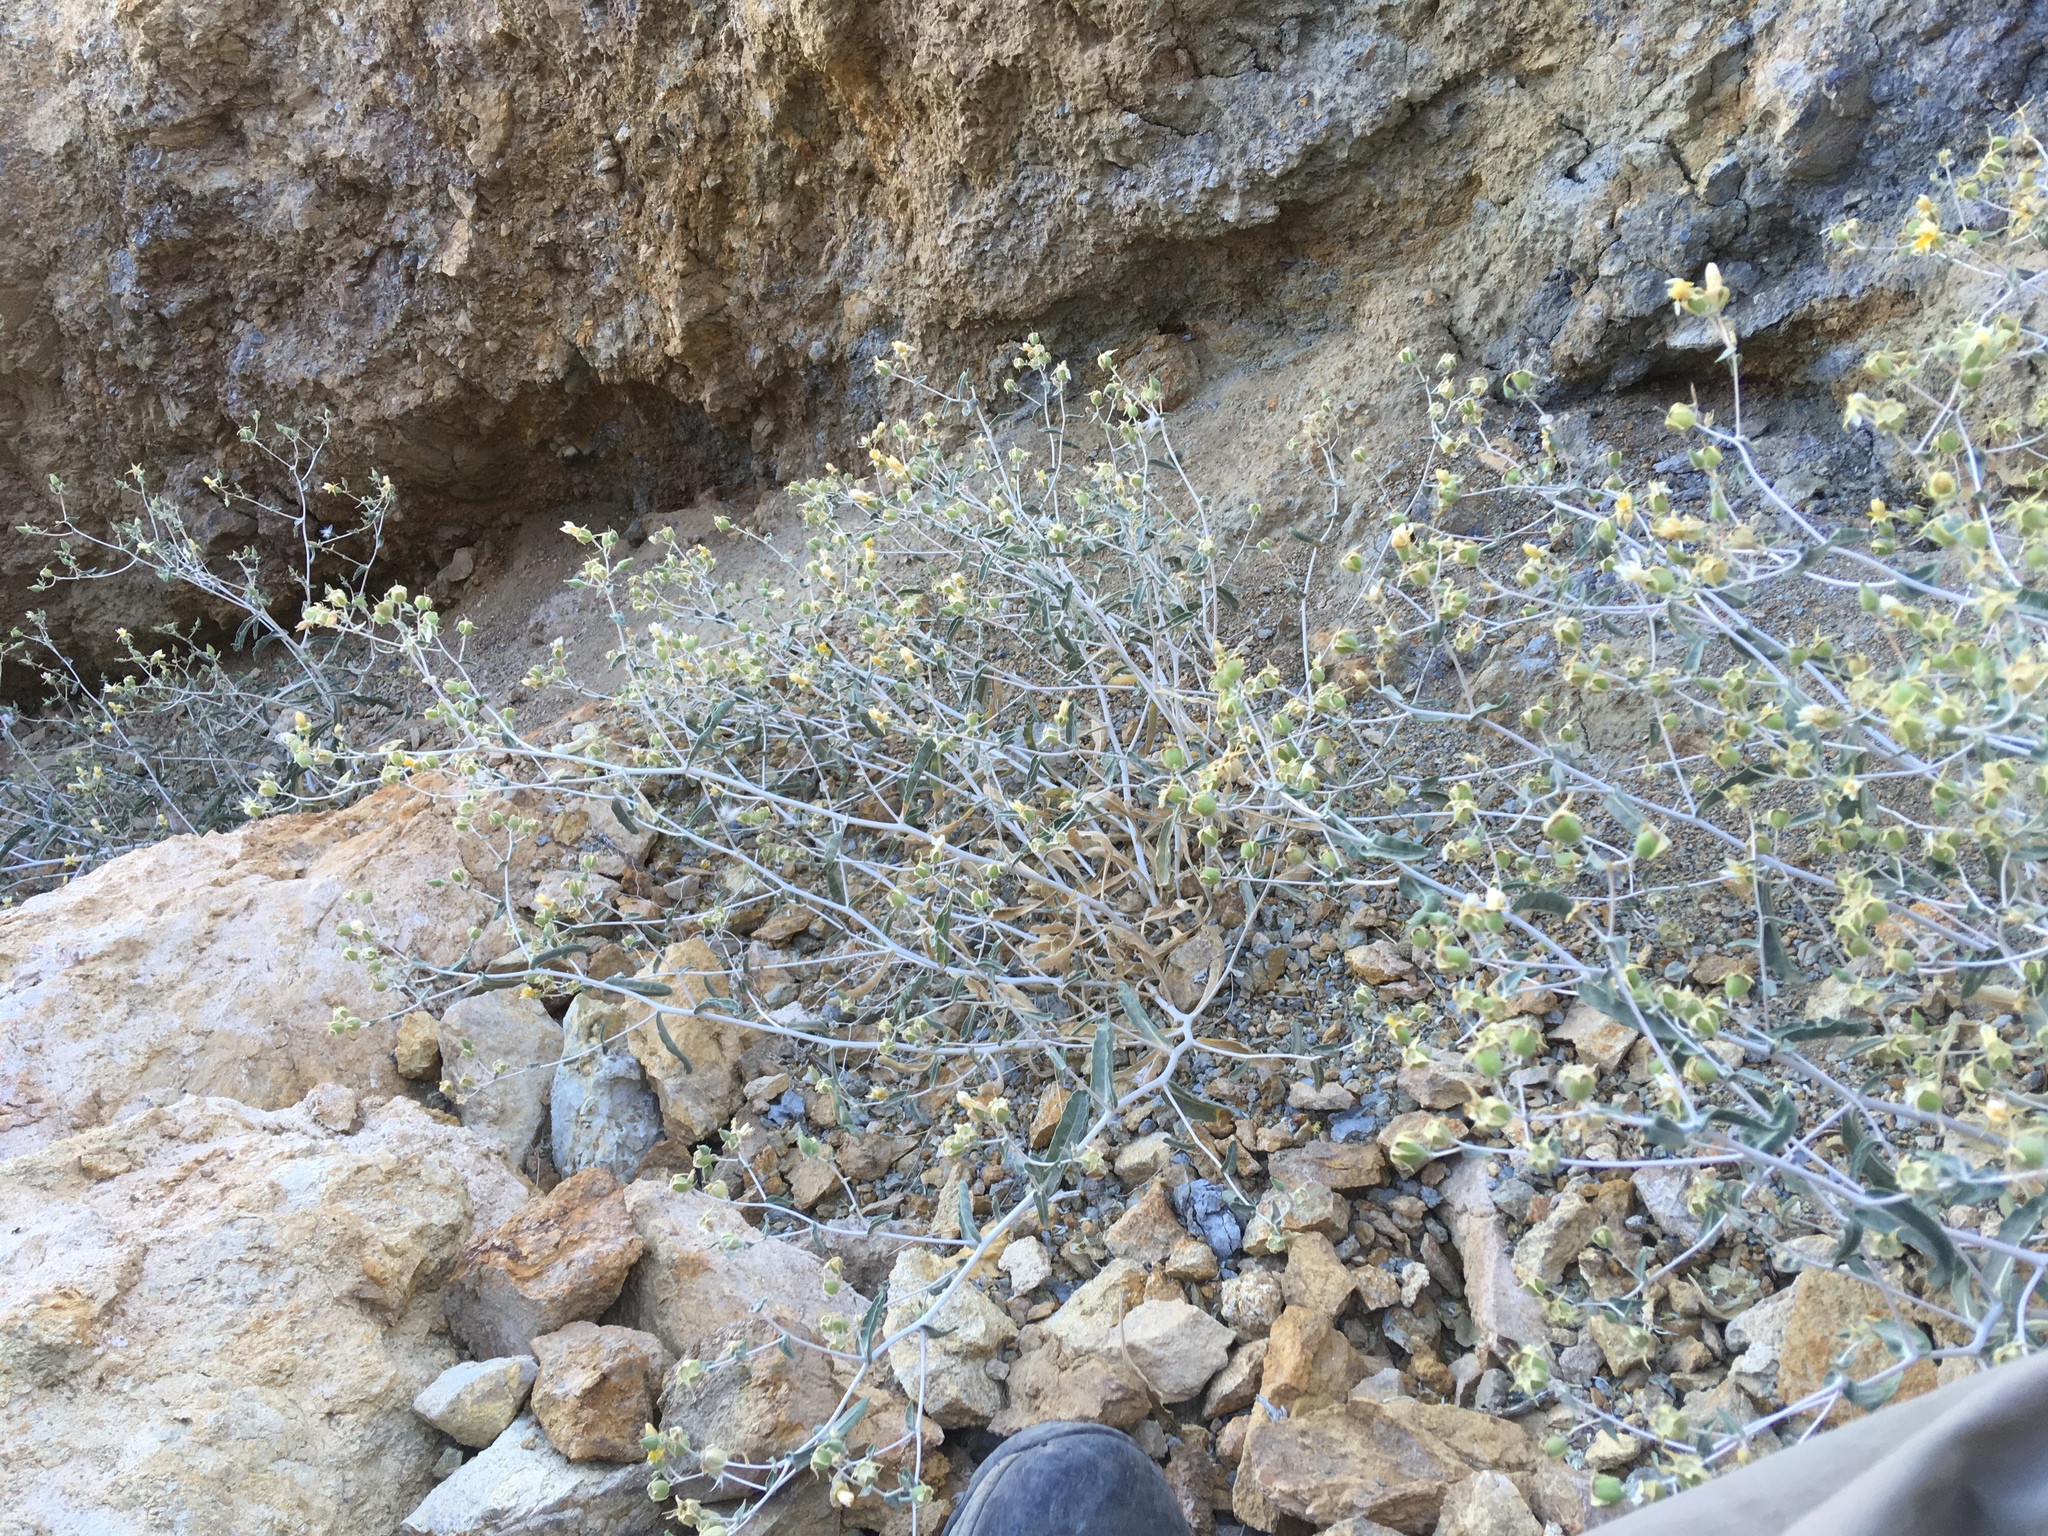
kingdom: Plantae
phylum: Tracheophyta
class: Magnoliopsida
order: Cornales
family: Loasaceae
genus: Mentzelia
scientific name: Mentzelia oreophila
